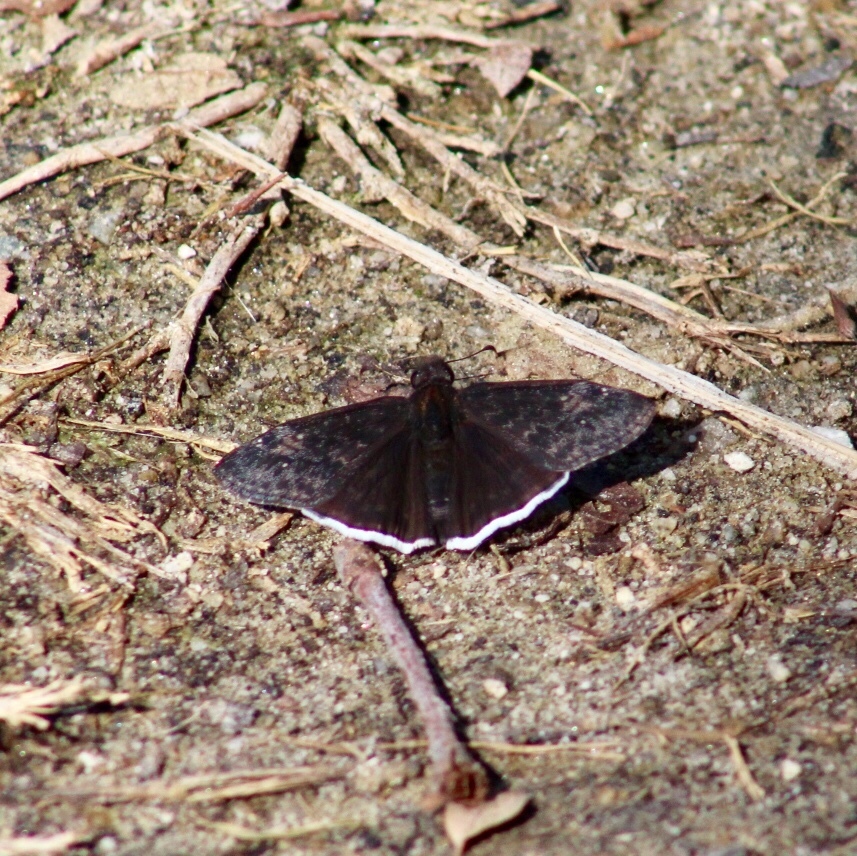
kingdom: Animalia
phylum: Arthropoda
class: Insecta
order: Lepidoptera
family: Hesperiidae
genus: Erynnis
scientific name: Erynnis funeralis
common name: Funereal duskywing
